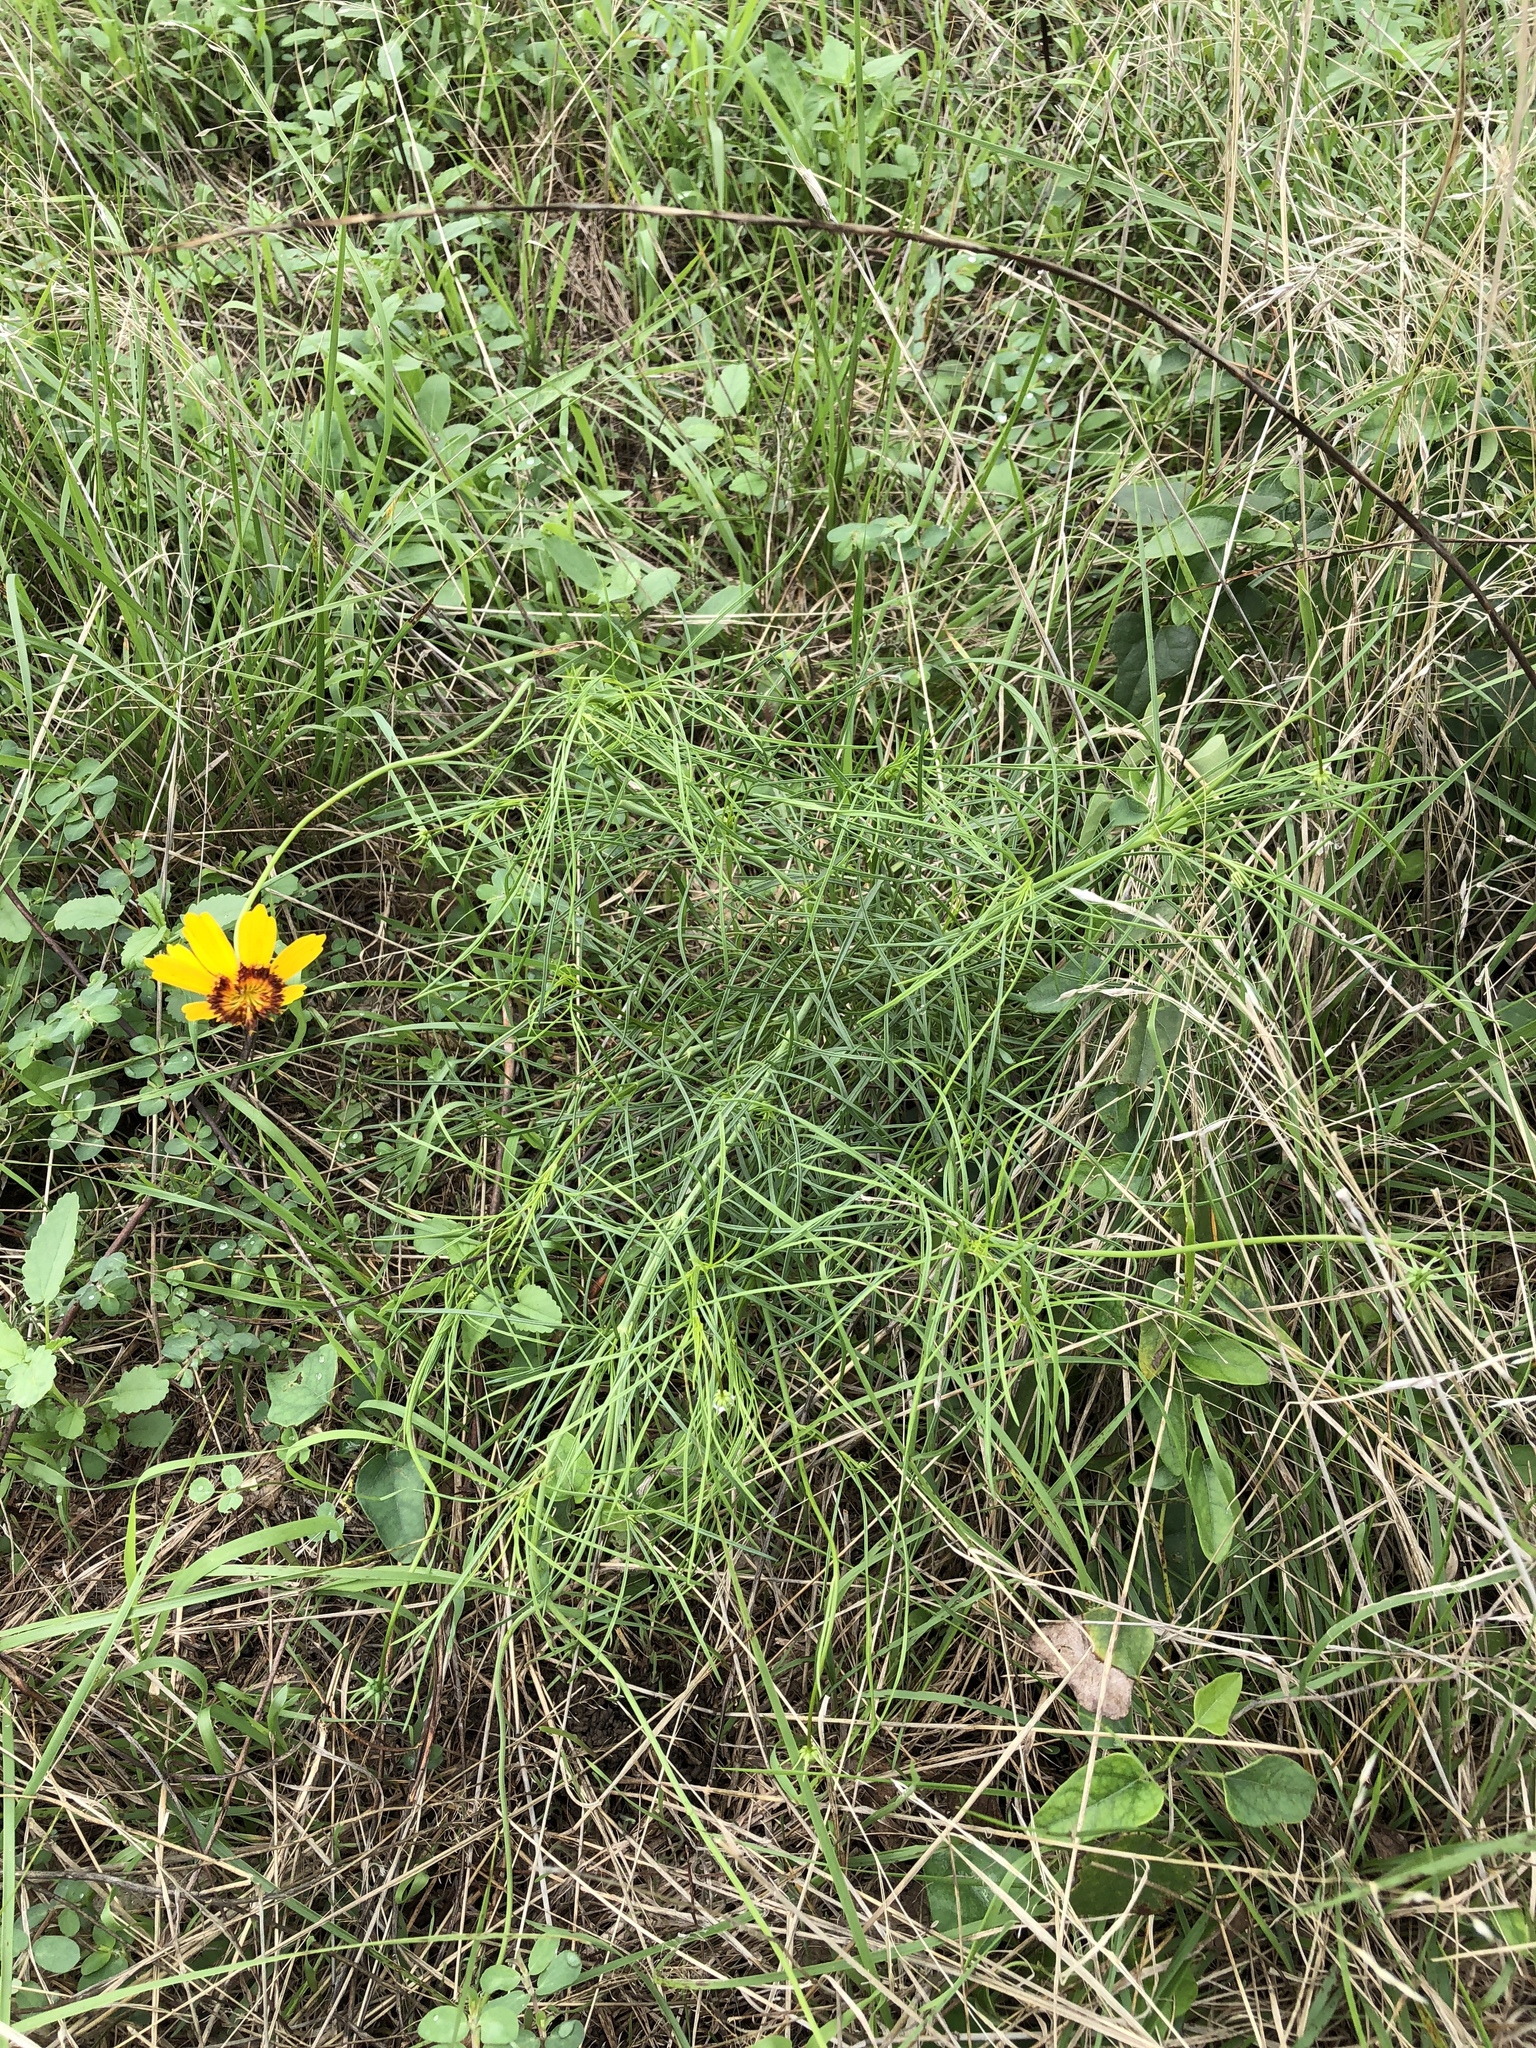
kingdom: Plantae
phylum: Tracheophyta
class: Magnoliopsida
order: Asterales
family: Asteraceae
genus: Thelesperma
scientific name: Thelesperma filifolium
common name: Stiff greenthread
